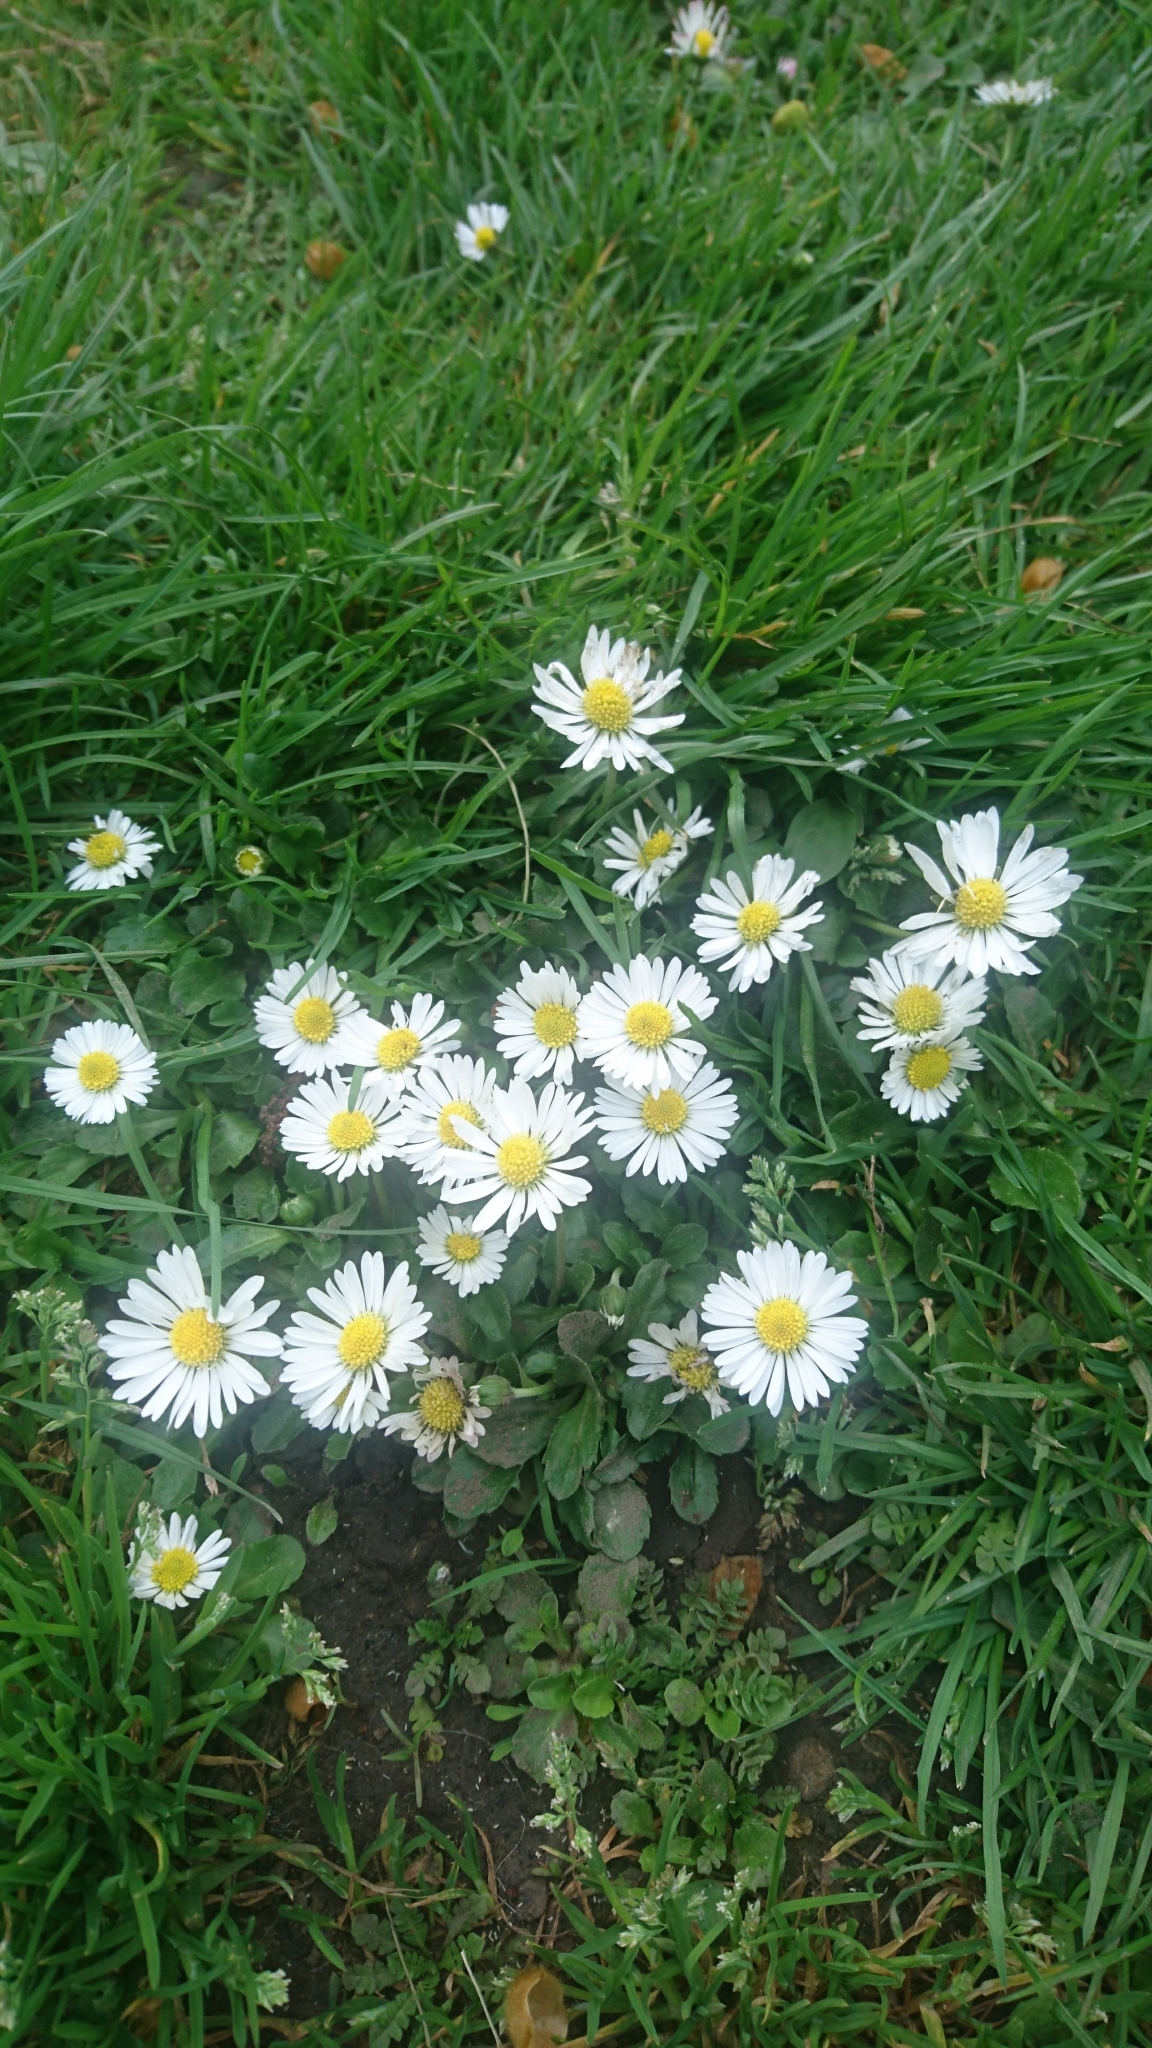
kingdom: Plantae
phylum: Tracheophyta
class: Magnoliopsida
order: Asterales
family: Asteraceae
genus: Bellis
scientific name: Bellis perennis
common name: Lawndaisy
